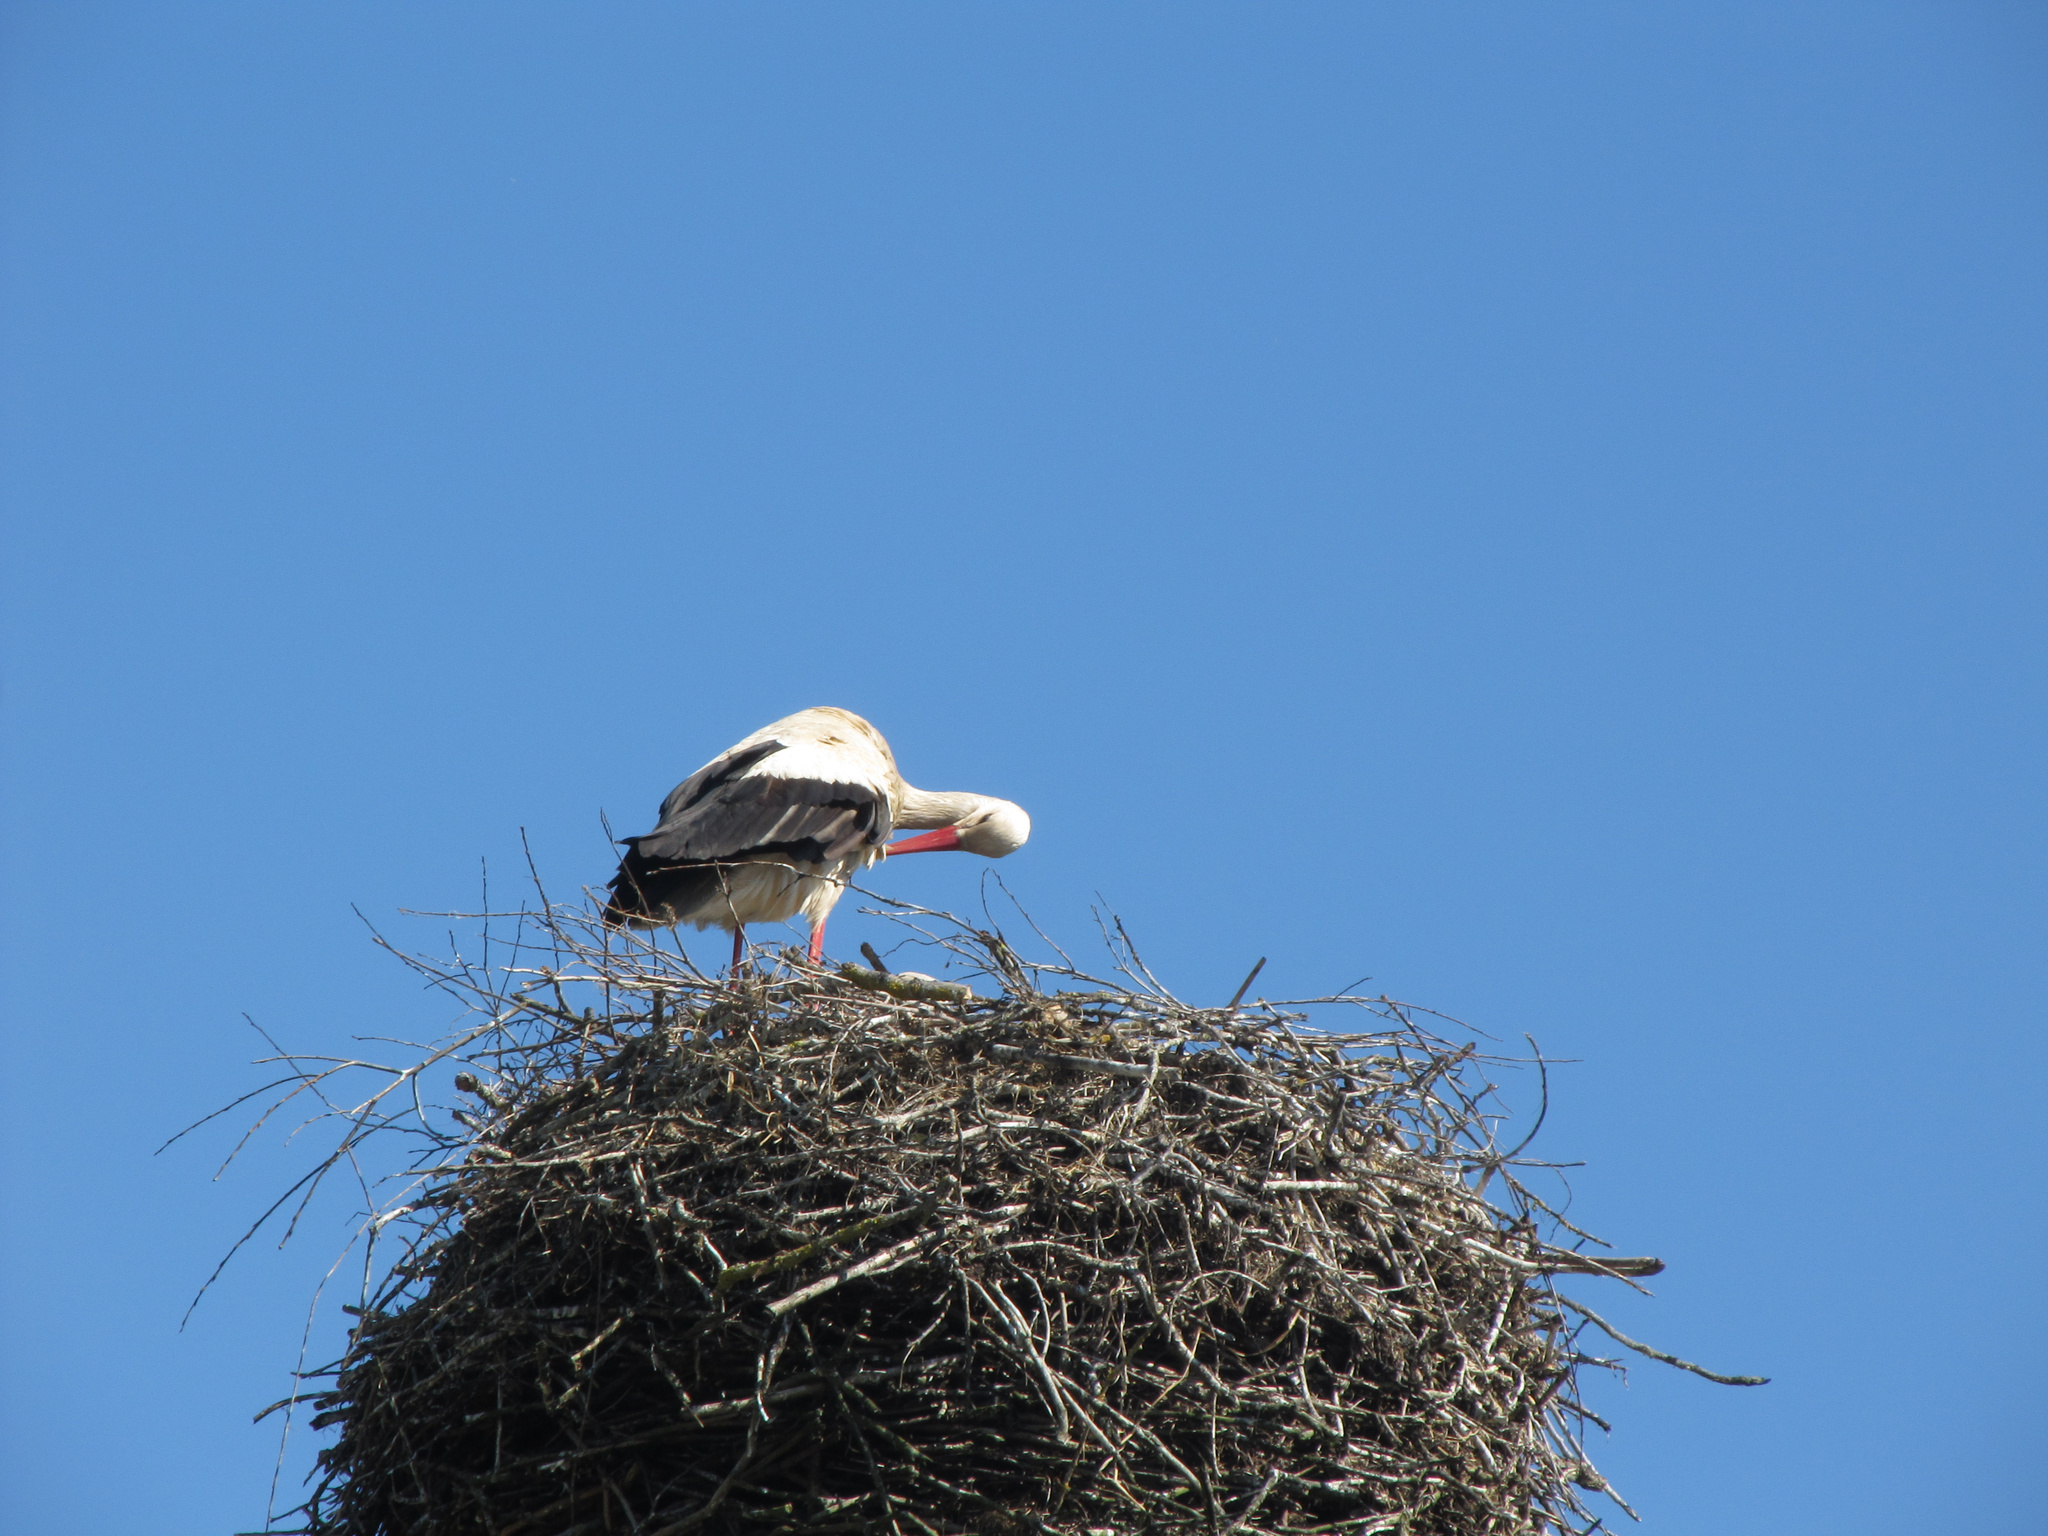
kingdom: Animalia
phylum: Chordata
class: Aves
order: Ciconiiformes
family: Ciconiidae
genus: Ciconia
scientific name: Ciconia ciconia
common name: White stork
